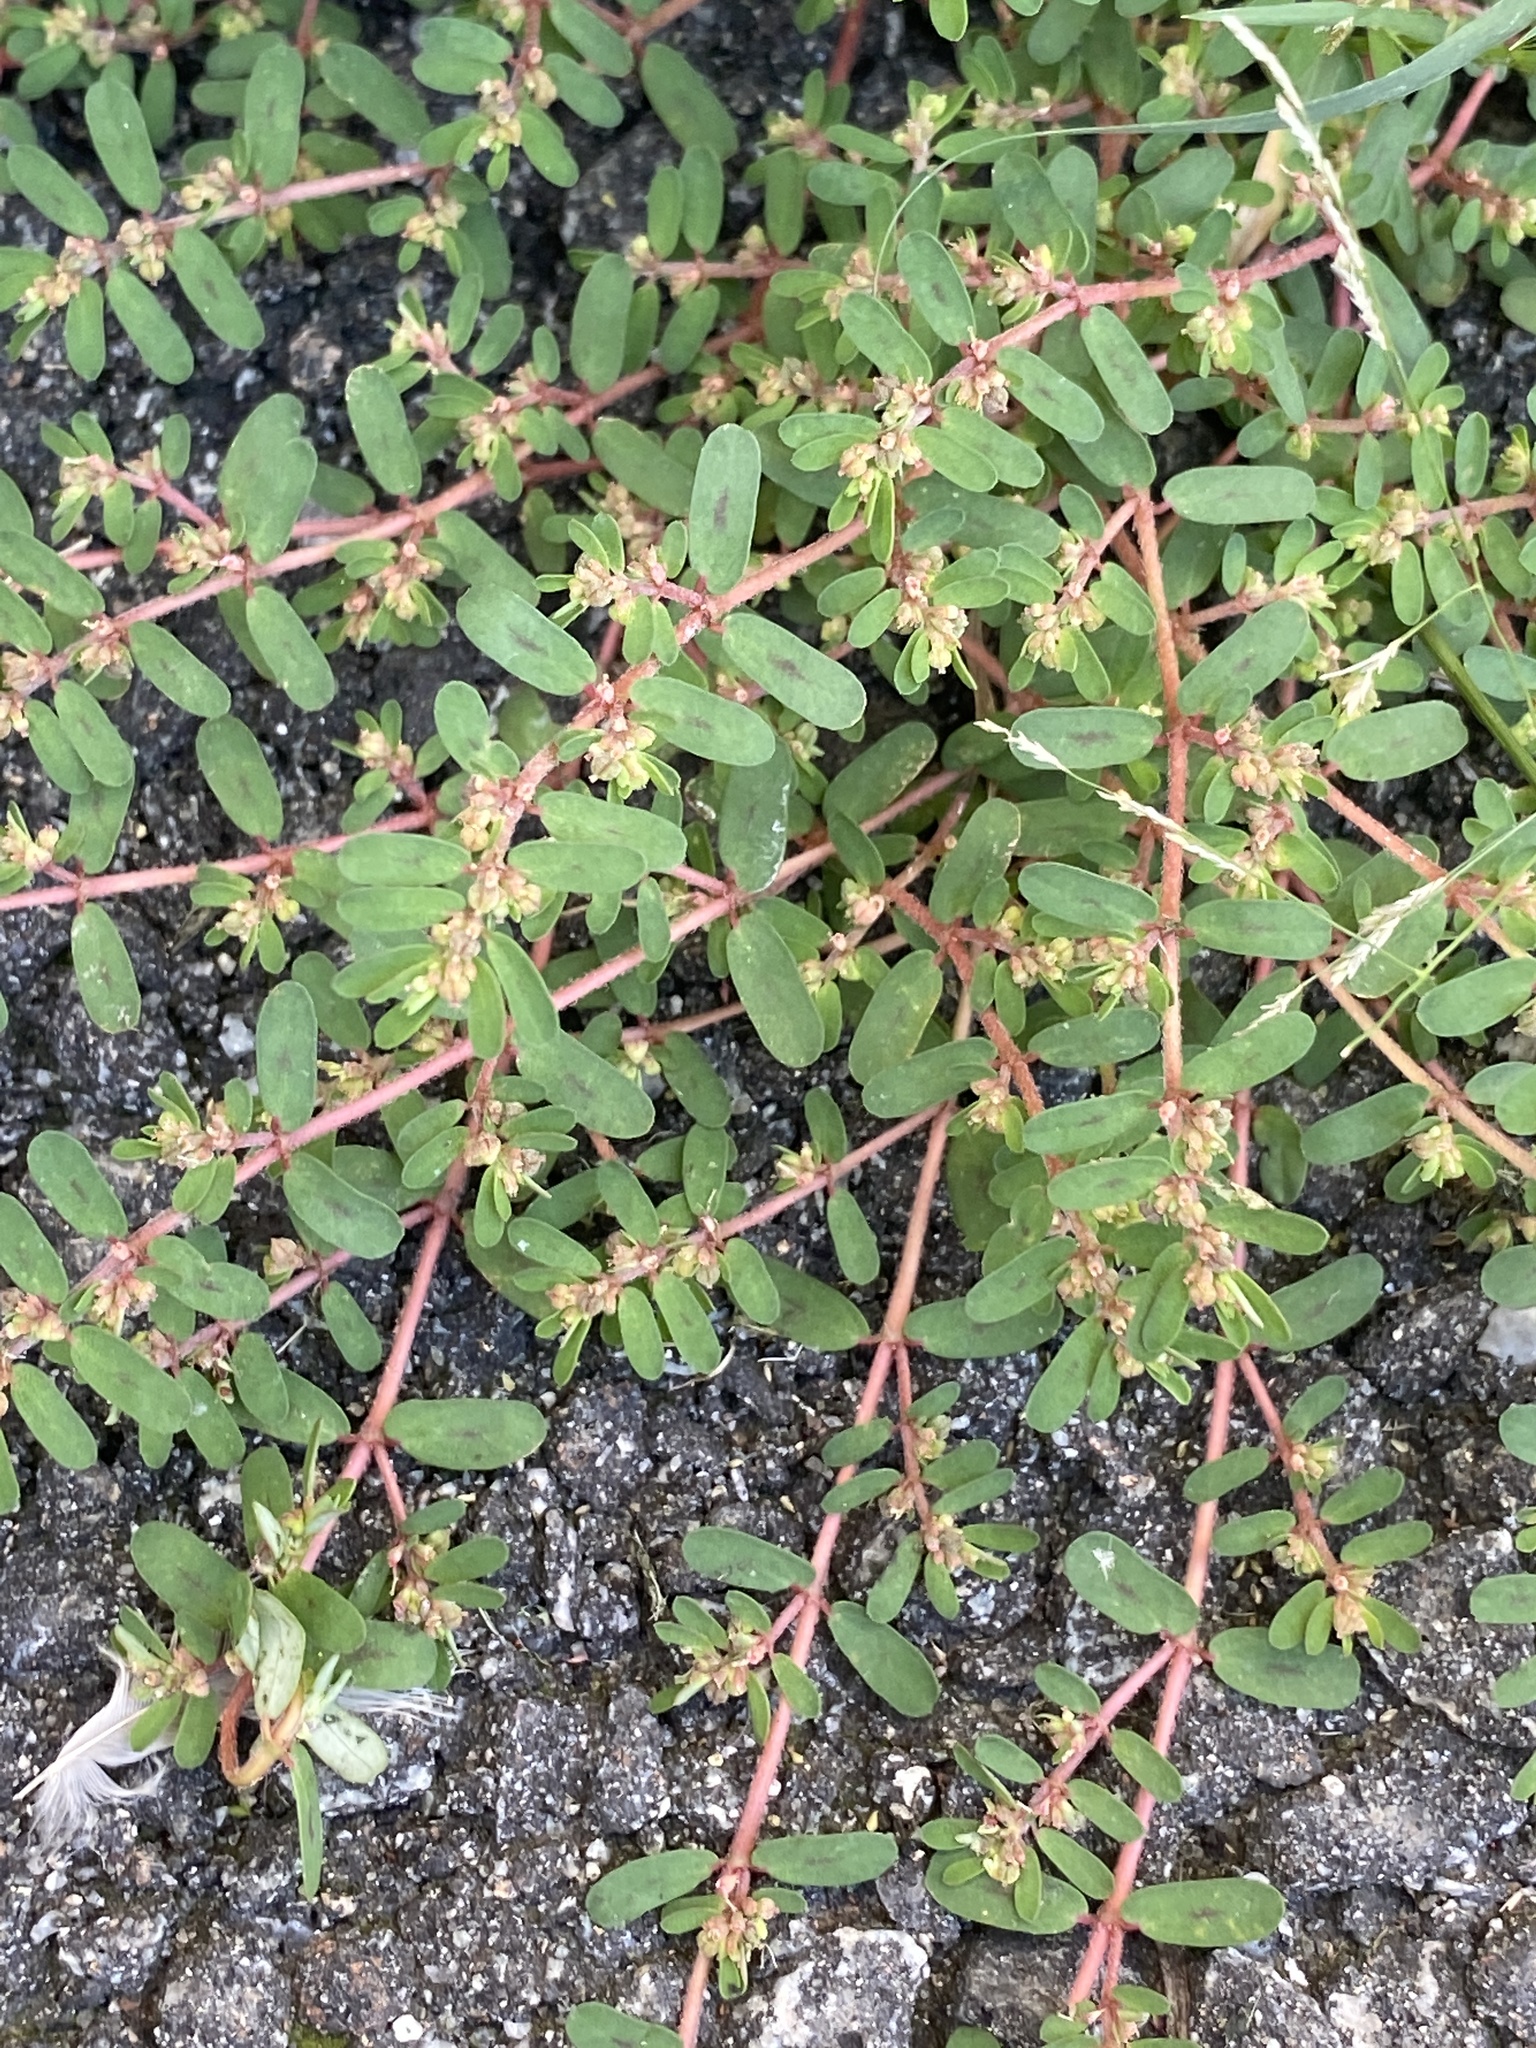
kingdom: Plantae
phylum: Tracheophyta
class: Magnoliopsida
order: Malpighiales
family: Euphorbiaceae
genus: Euphorbia
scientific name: Euphorbia maculata
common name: Spotted spurge
